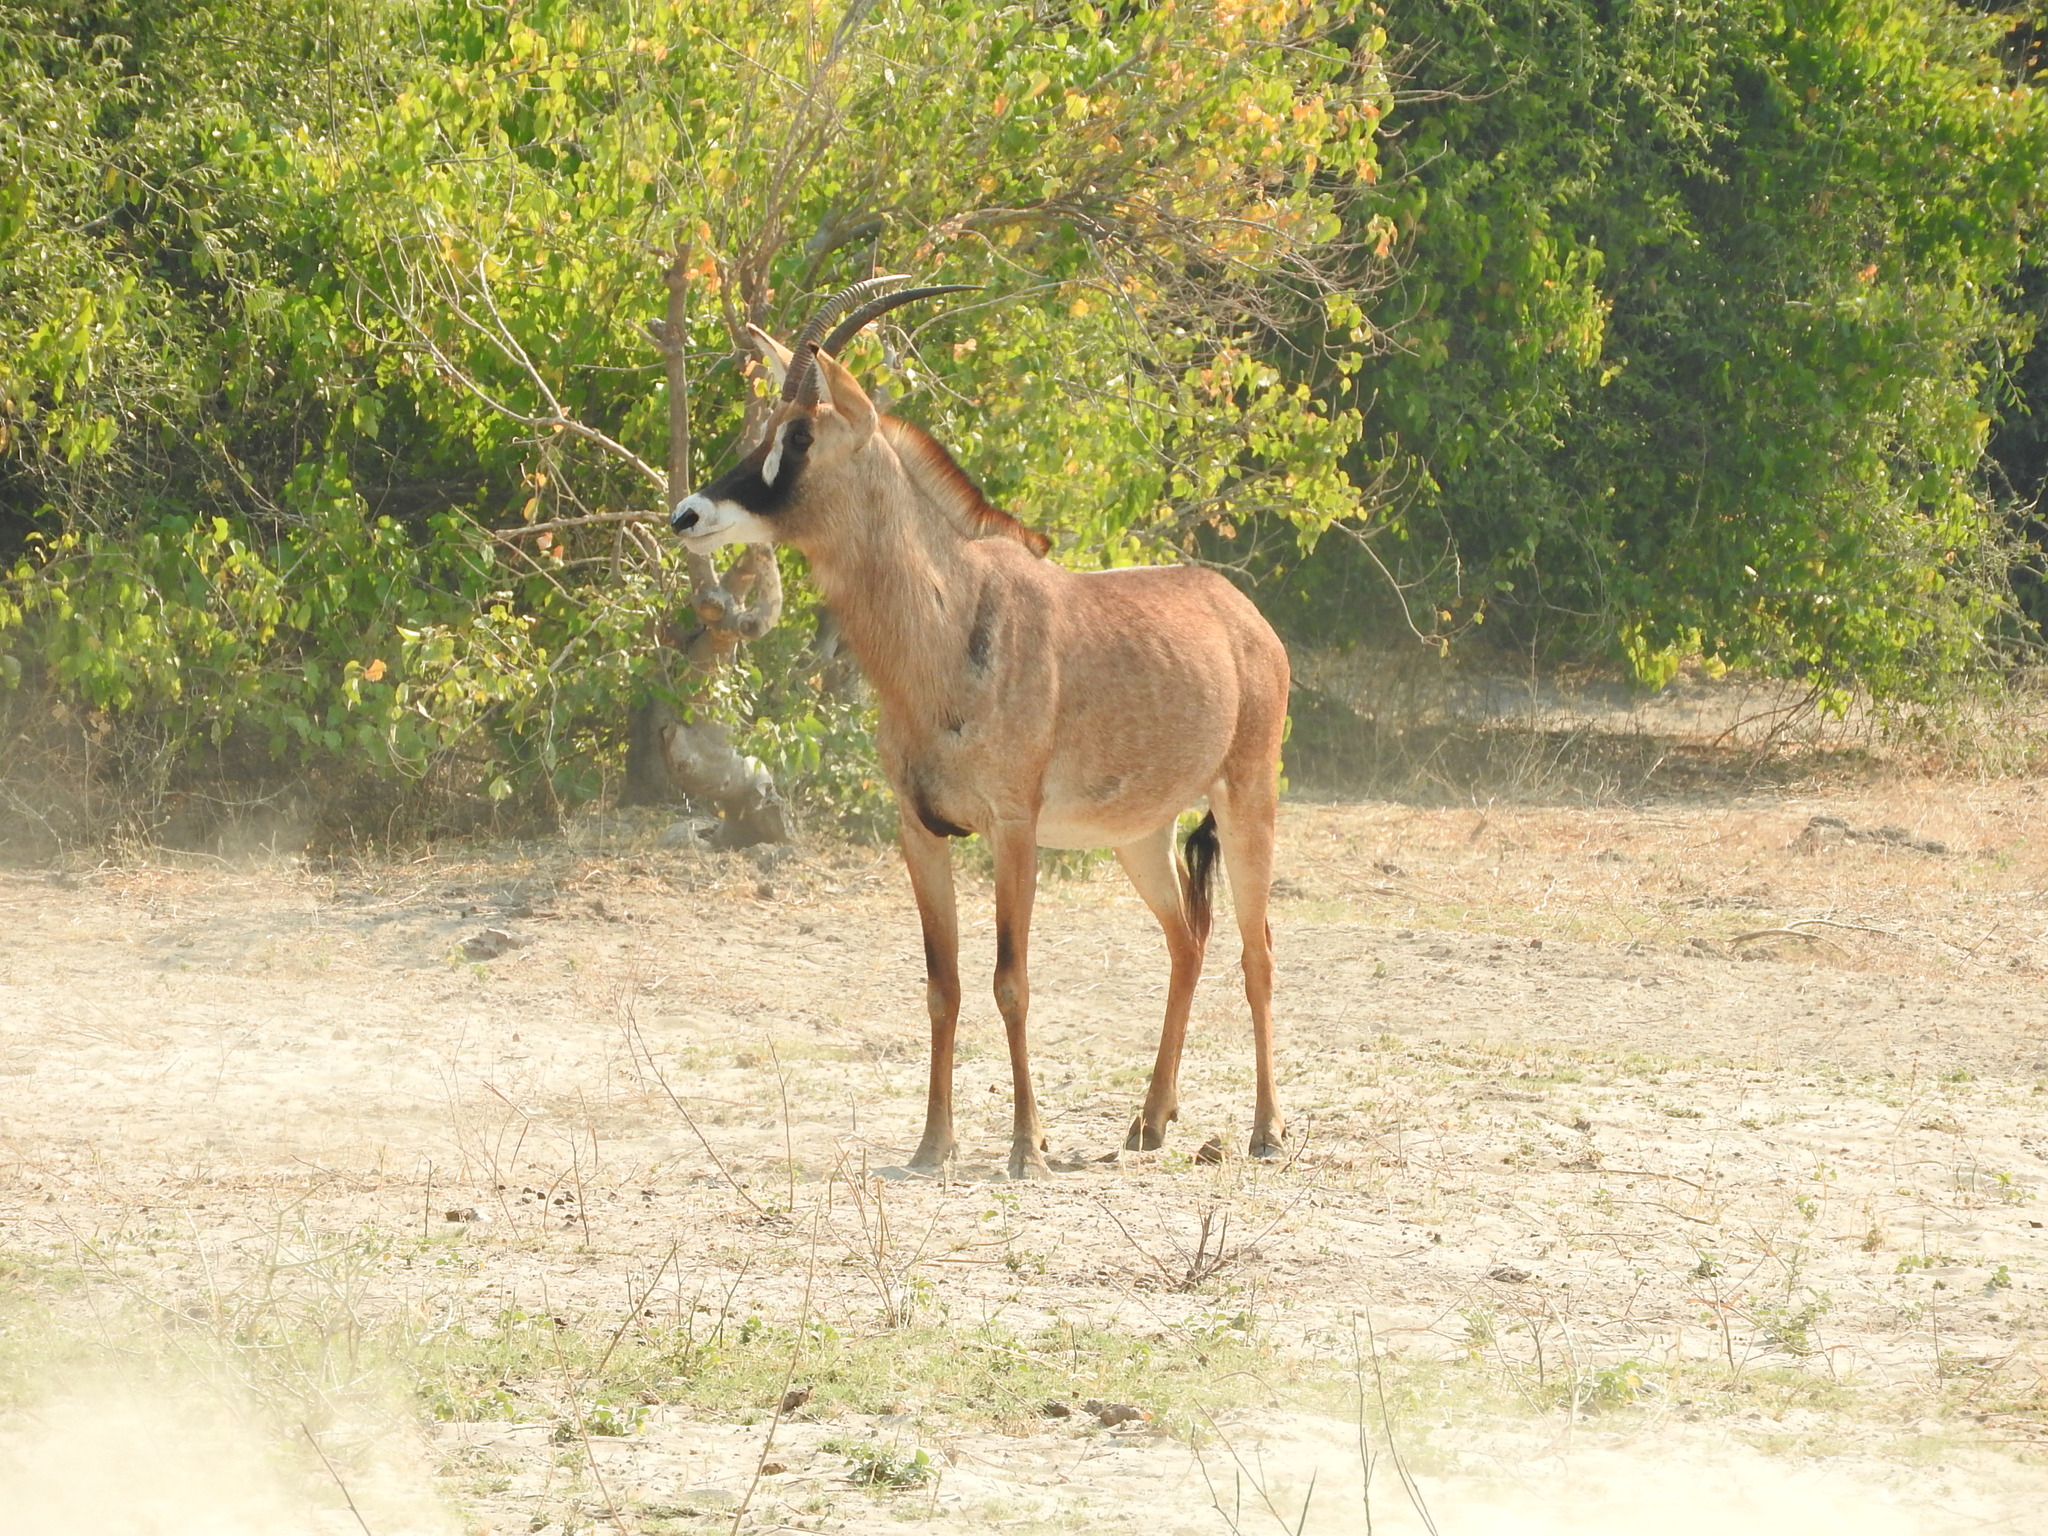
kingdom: Animalia
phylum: Chordata
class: Mammalia
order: Artiodactyla
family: Bovidae
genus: Hippotragus
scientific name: Hippotragus equinus
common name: Roan antelope
